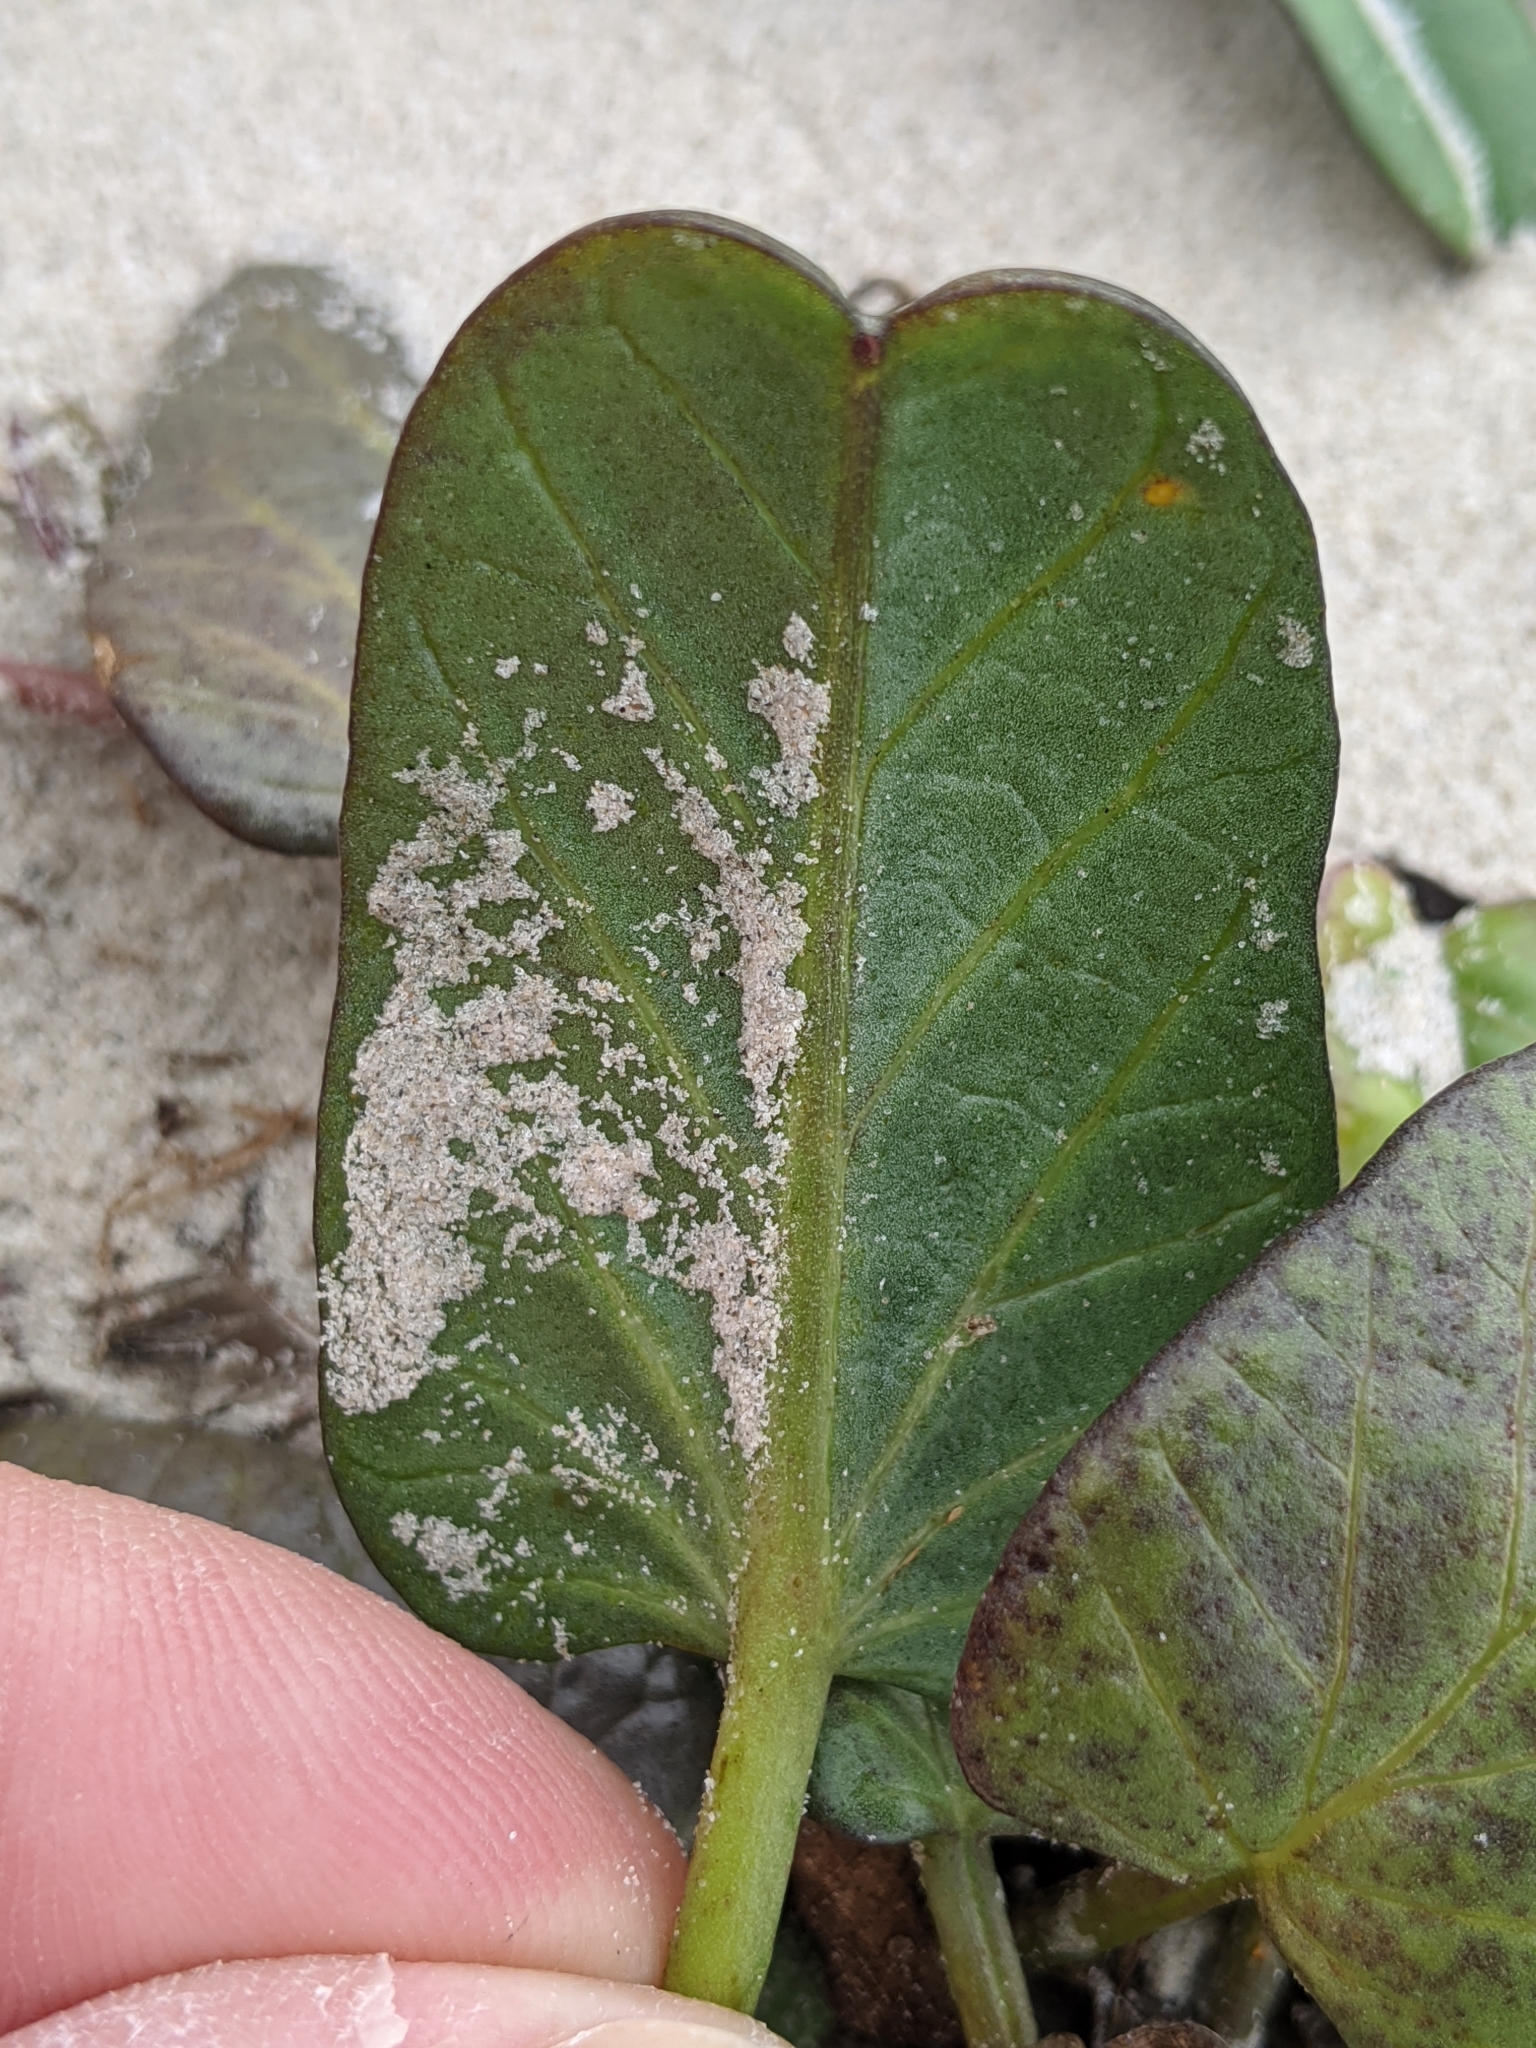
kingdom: Plantae
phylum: Tracheophyta
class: Magnoliopsida
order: Solanales
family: Convolvulaceae
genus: Ipomoea
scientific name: Ipomoea imperati
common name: Fiddle-leaf morning-glory
